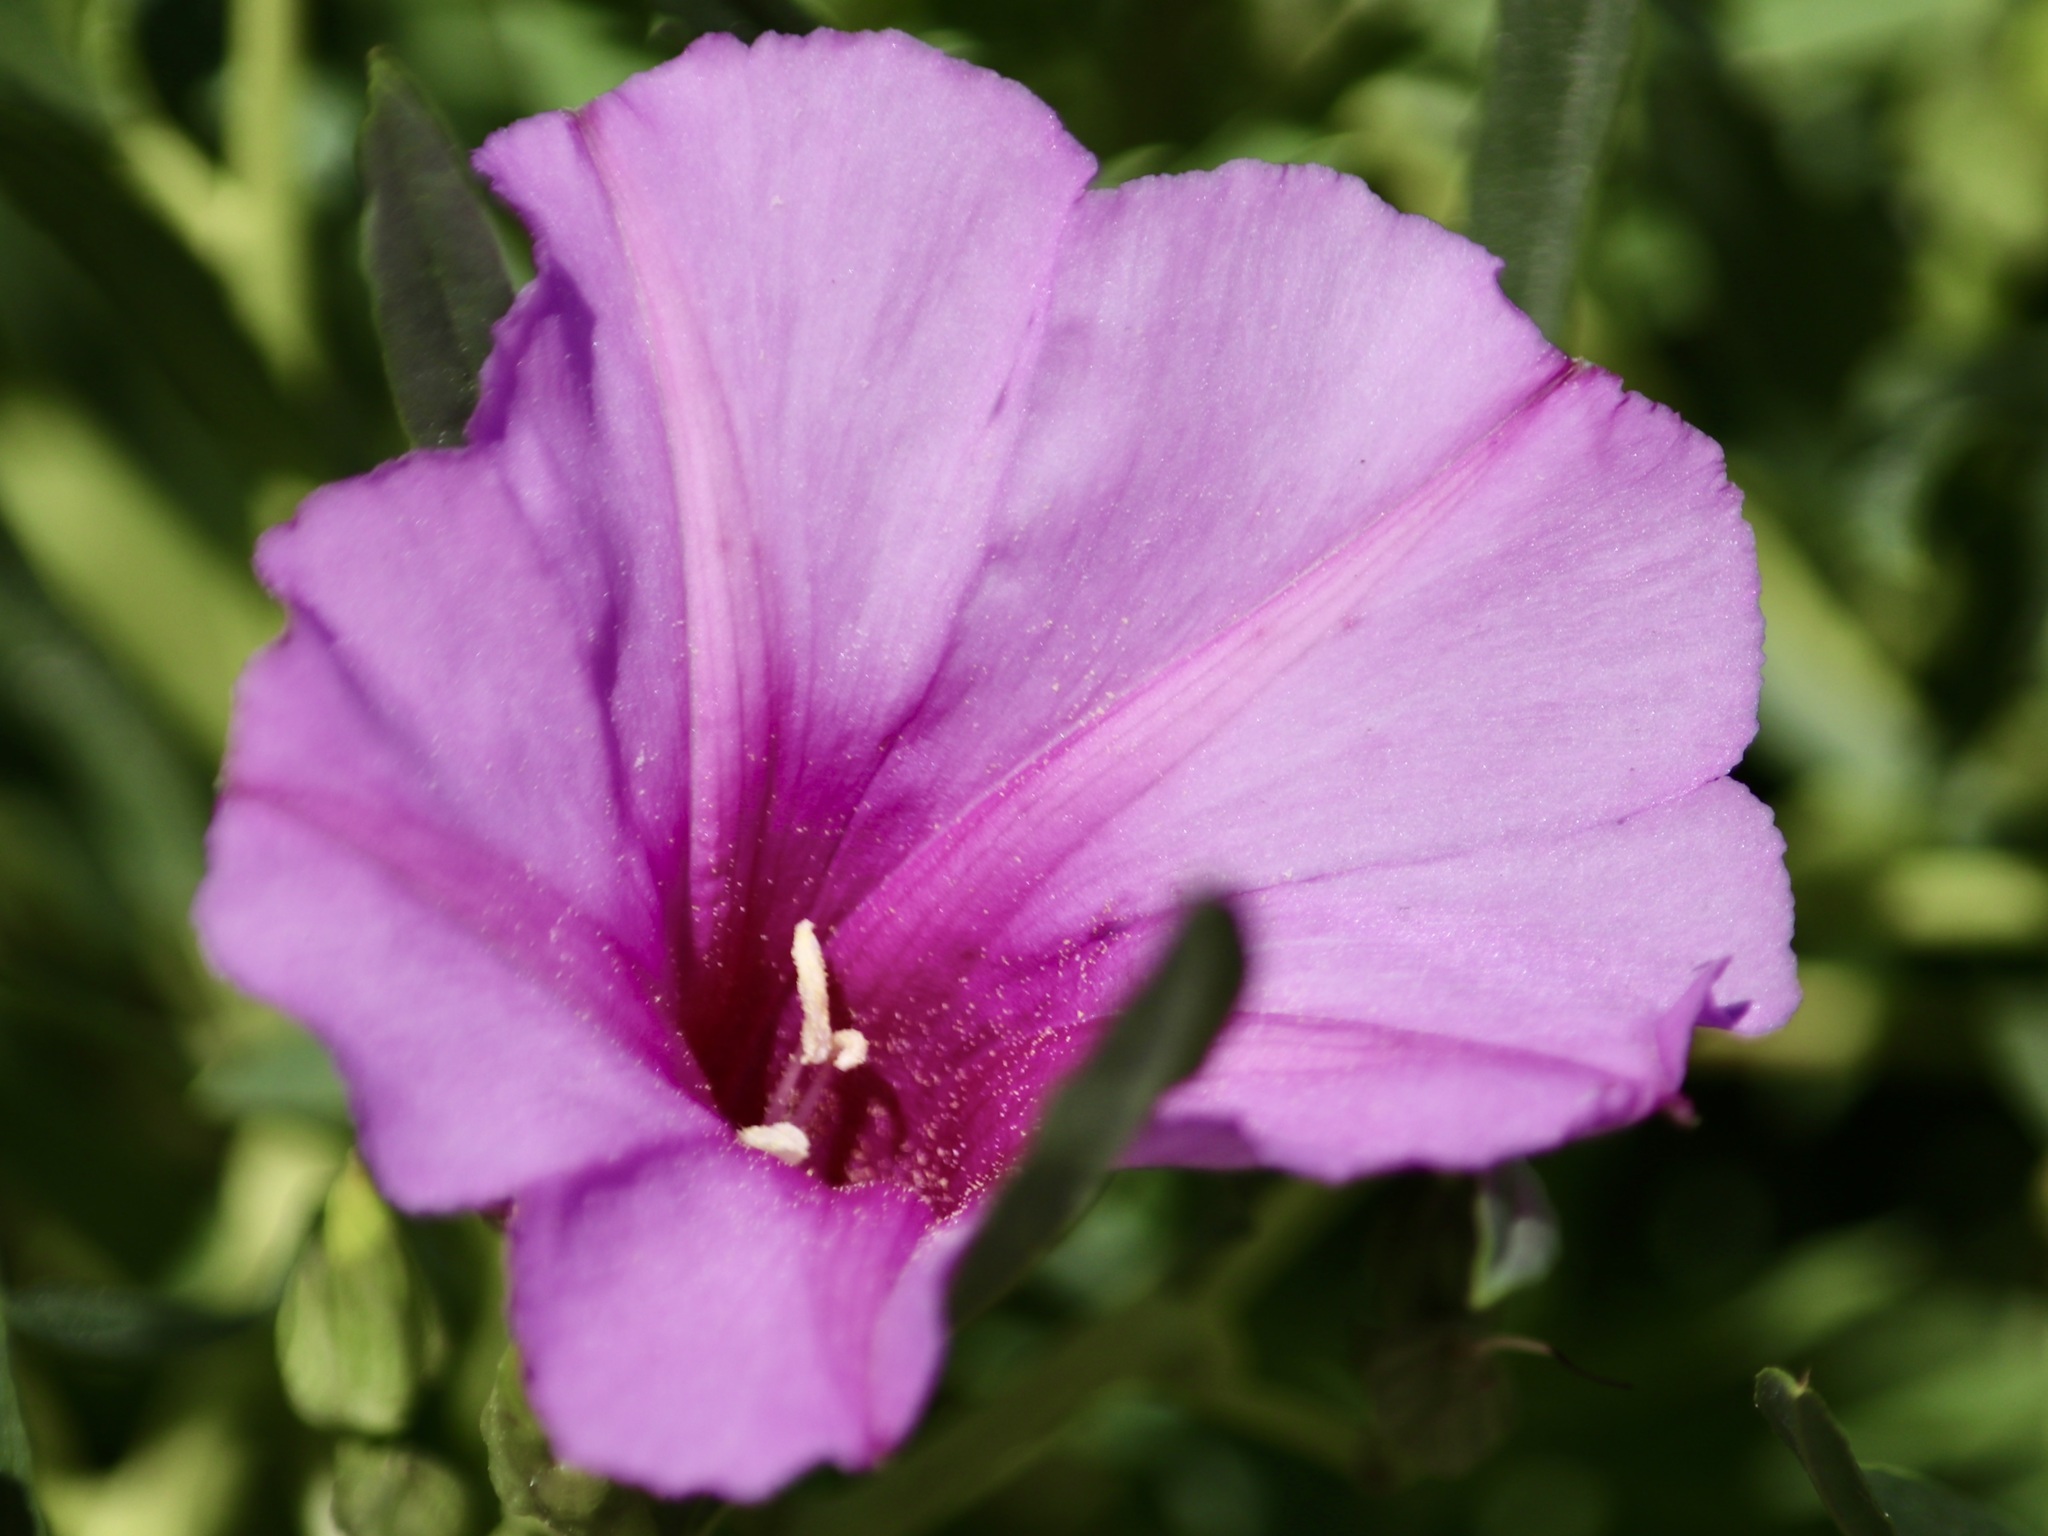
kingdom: Plantae
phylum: Tracheophyta
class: Magnoliopsida
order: Solanales
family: Convolvulaceae
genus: Ipomoea
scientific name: Ipomoea leptophylla
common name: Bush moonflower
